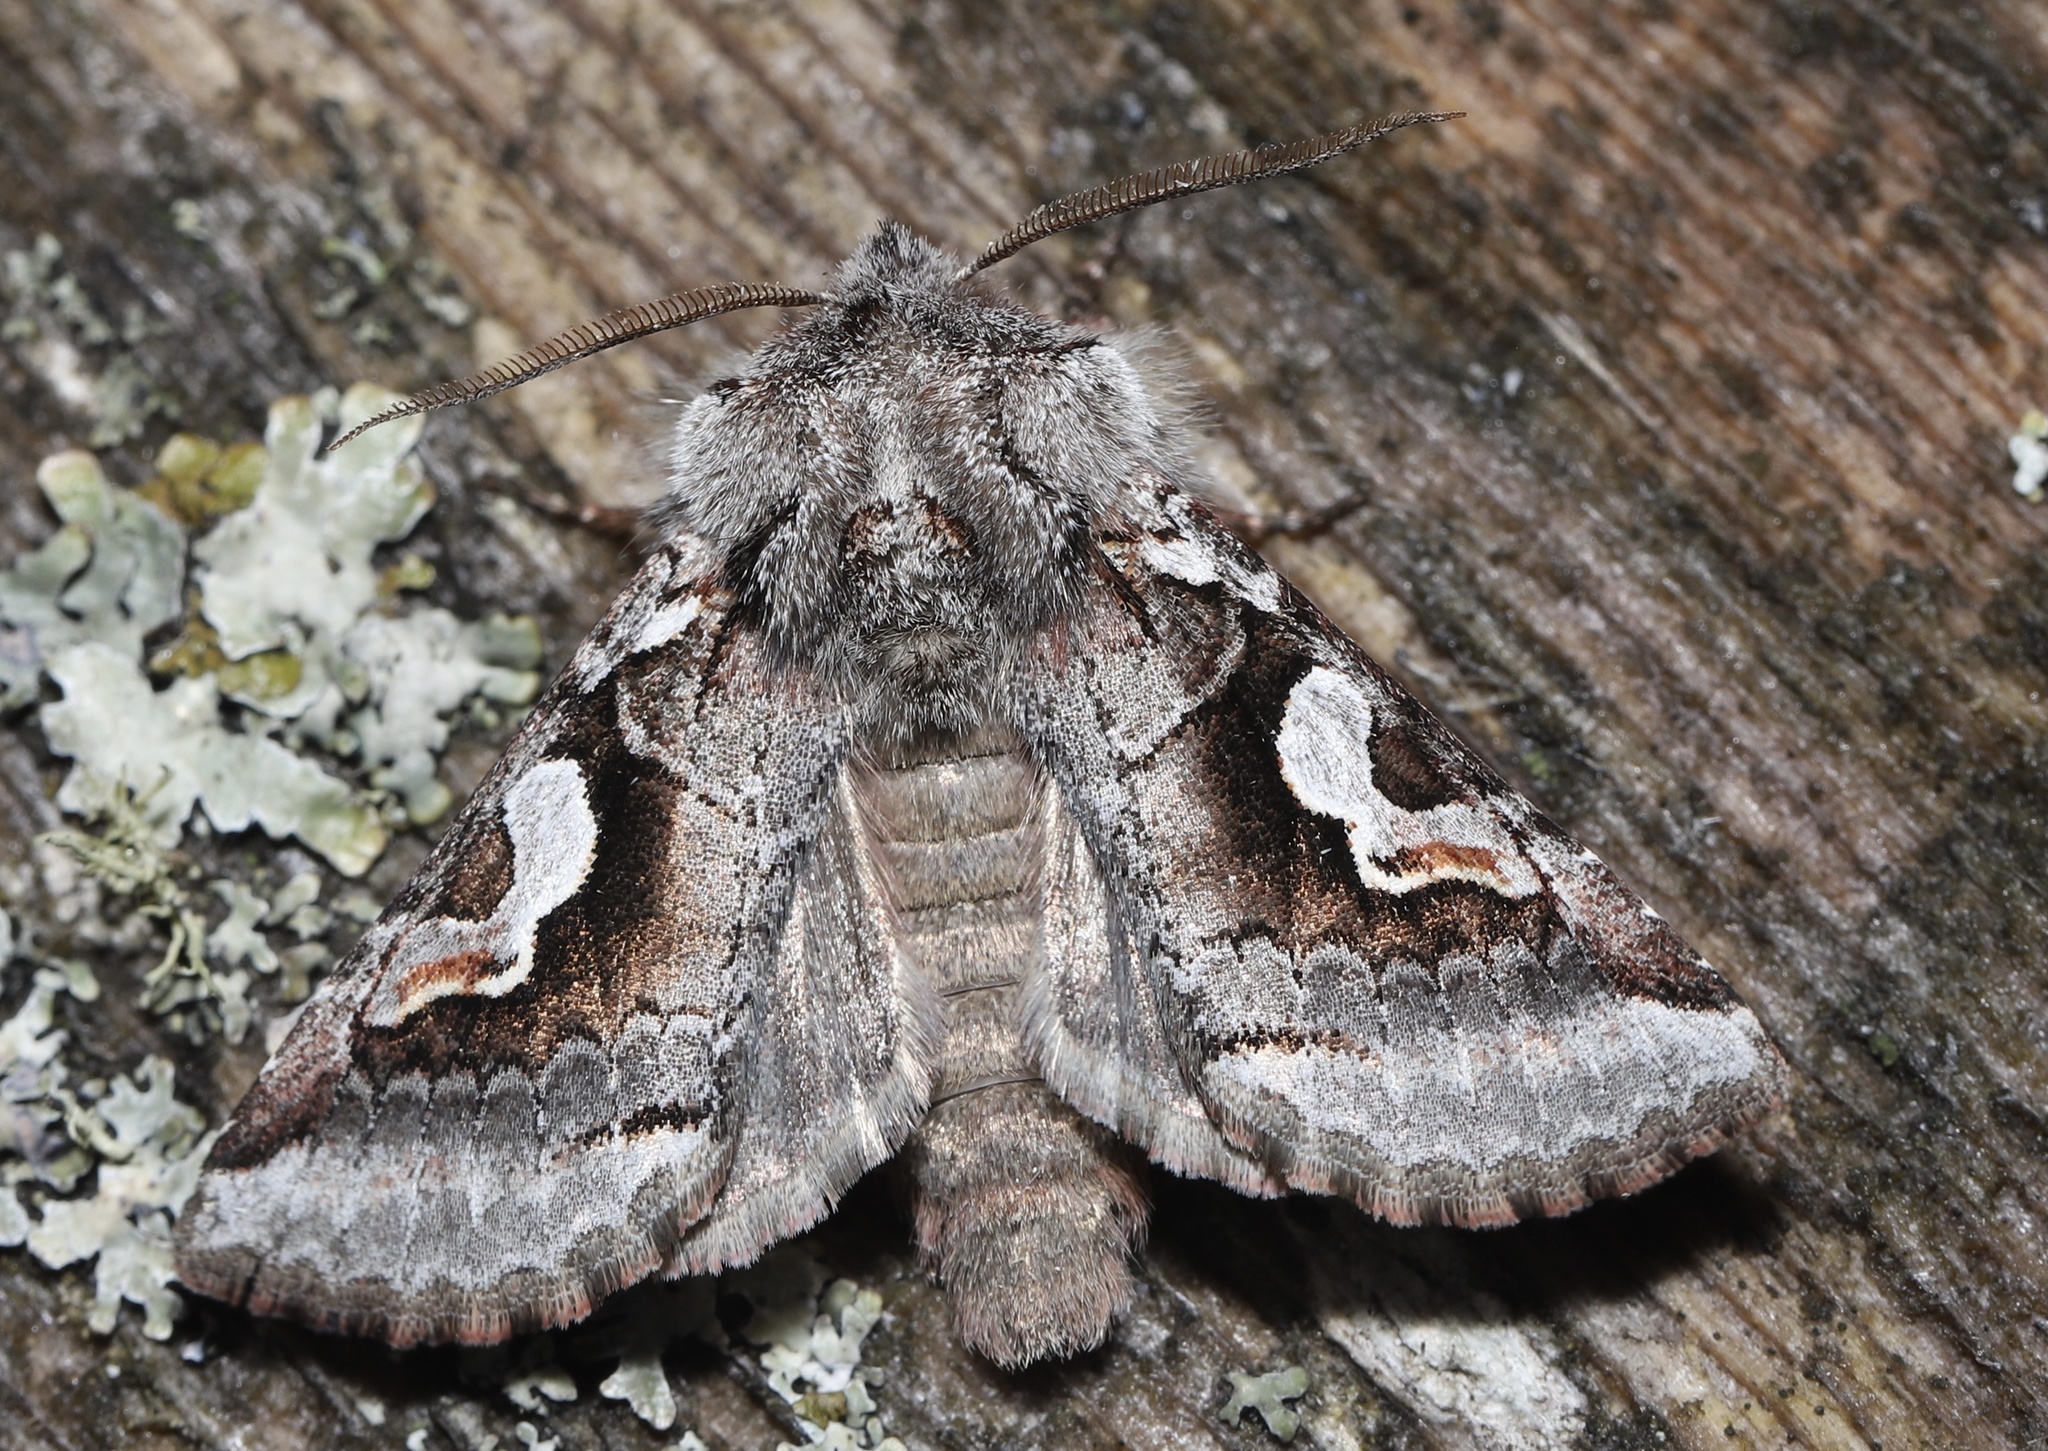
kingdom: Animalia
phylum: Arthropoda
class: Insecta
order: Lepidoptera
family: Noctuidae
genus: Stretchia
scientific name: Stretchia plusiaeformis
